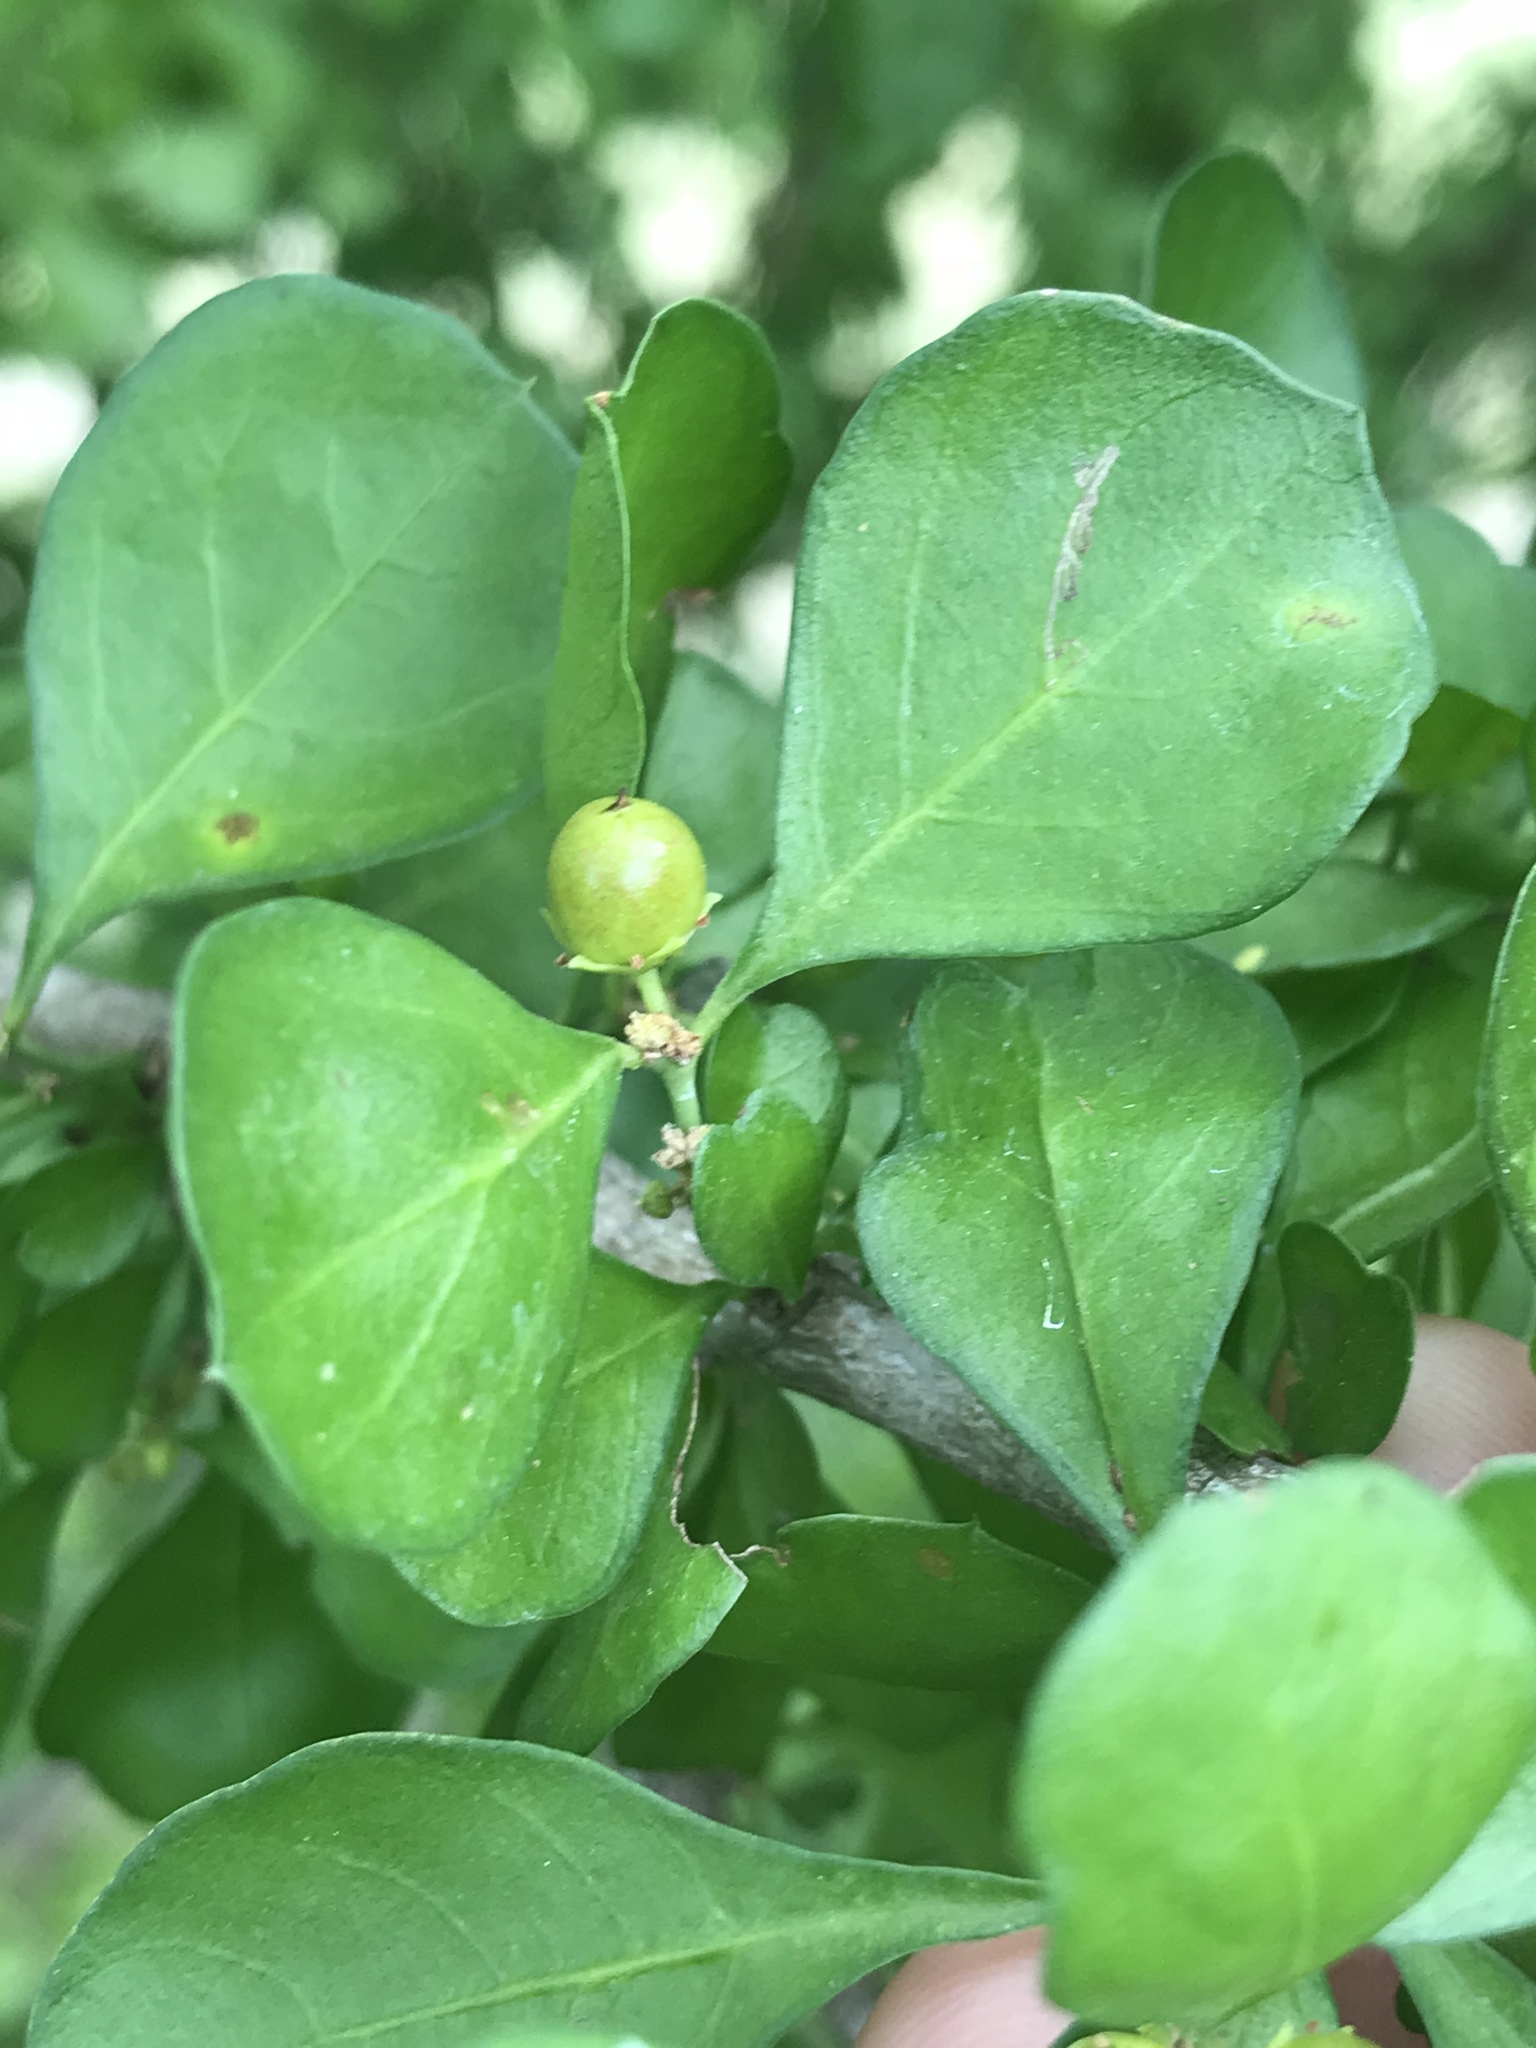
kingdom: Plantae
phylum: Tracheophyta
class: Magnoliopsida
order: Rosales
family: Rhamnaceae
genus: Condalia
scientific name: Condalia hookeri
